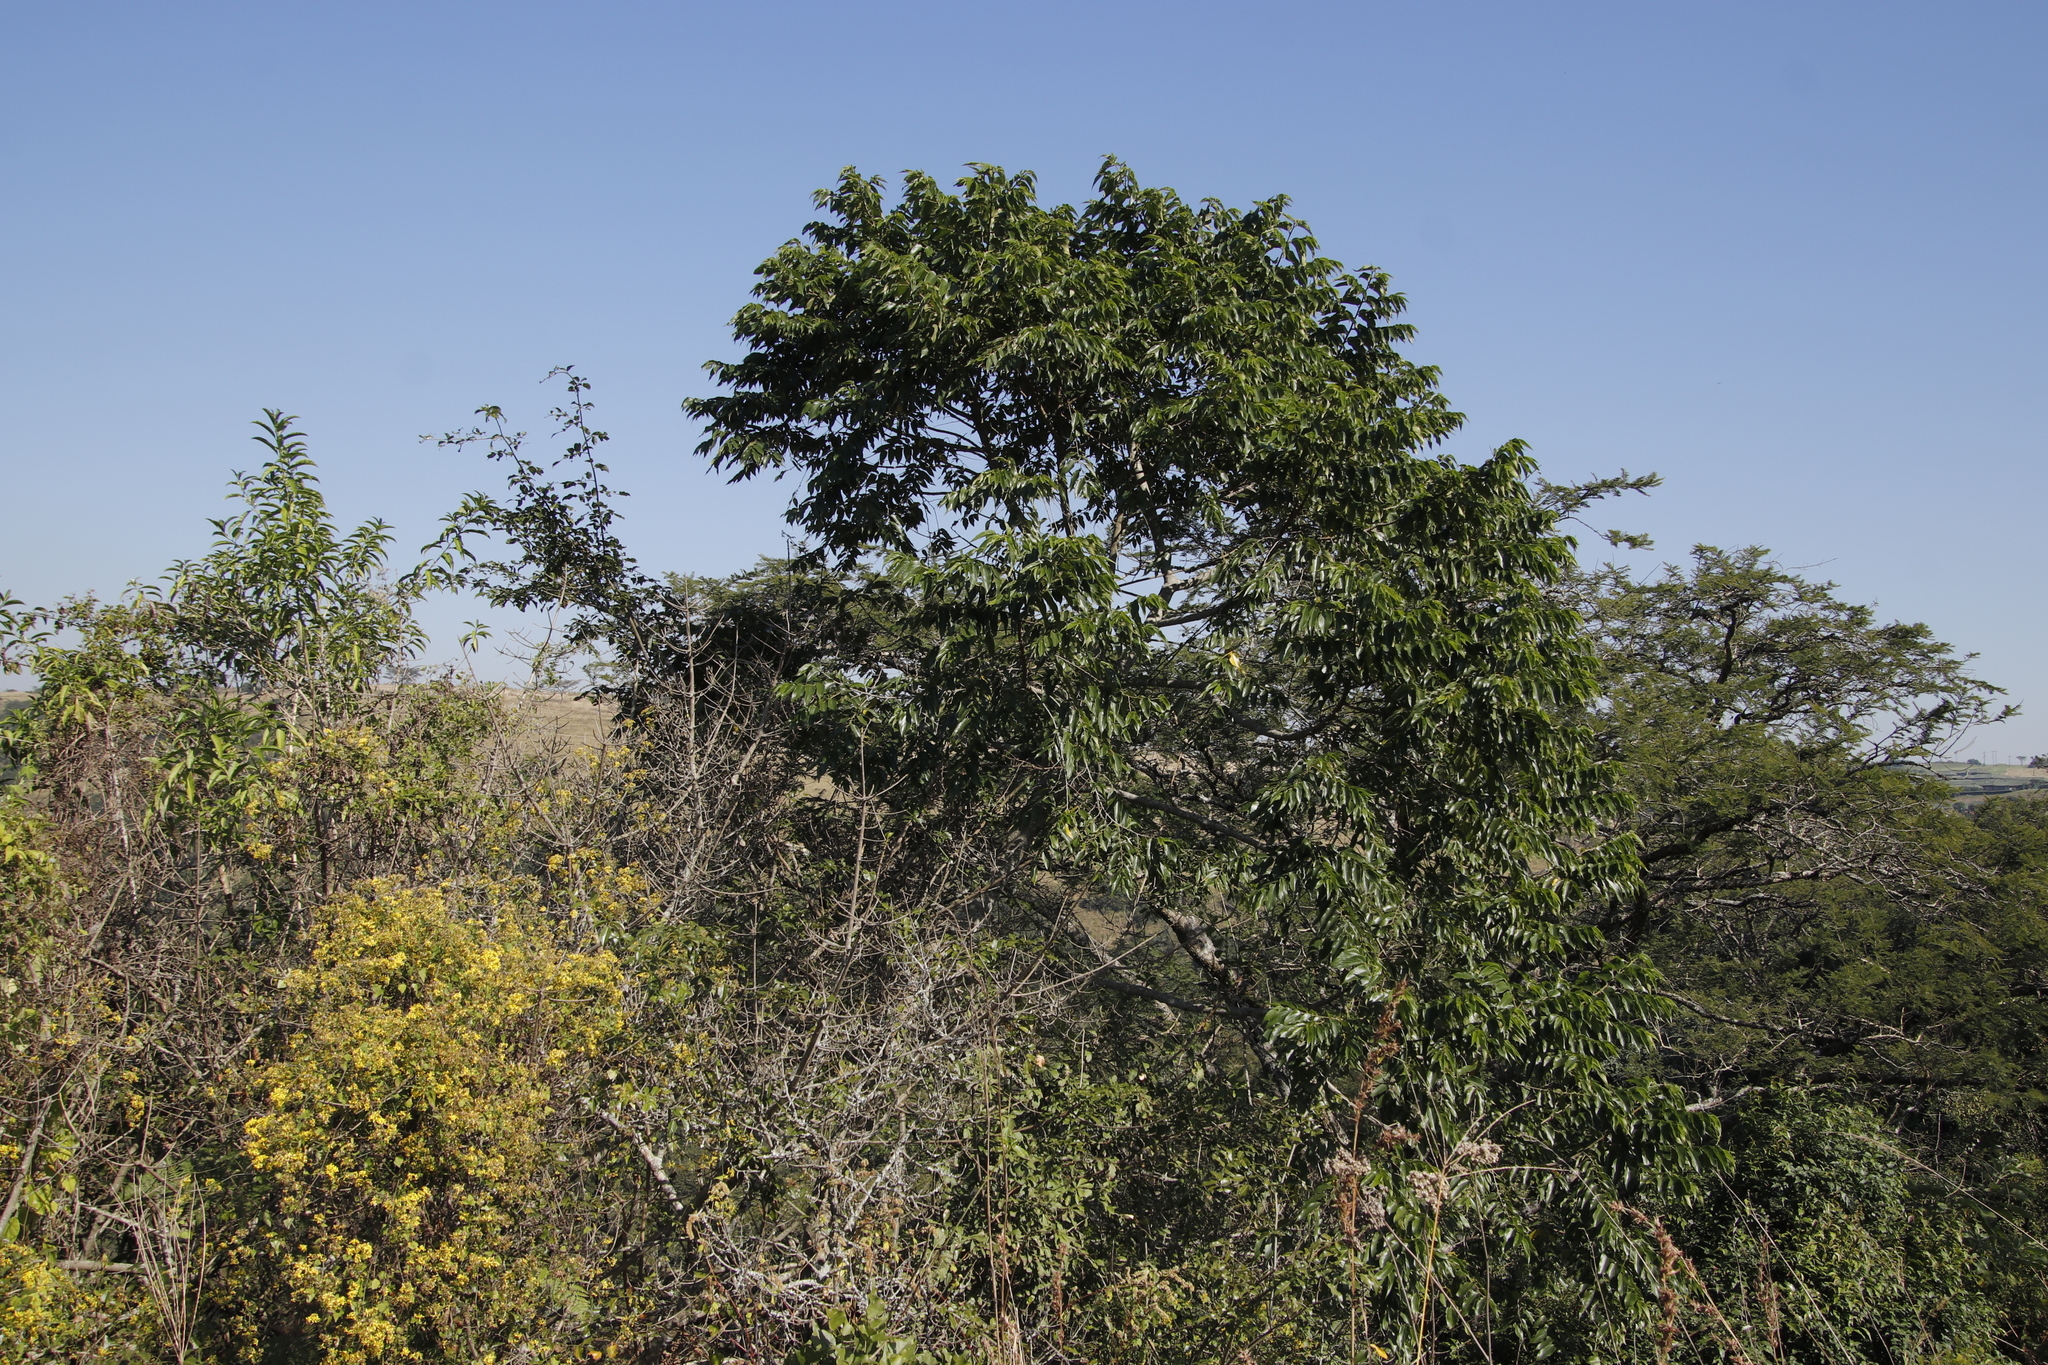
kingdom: Plantae
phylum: Tracheophyta
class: Magnoliopsida
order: Rosales
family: Cannabaceae
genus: Trema
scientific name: Trema orientale
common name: Indian charcoal tree
